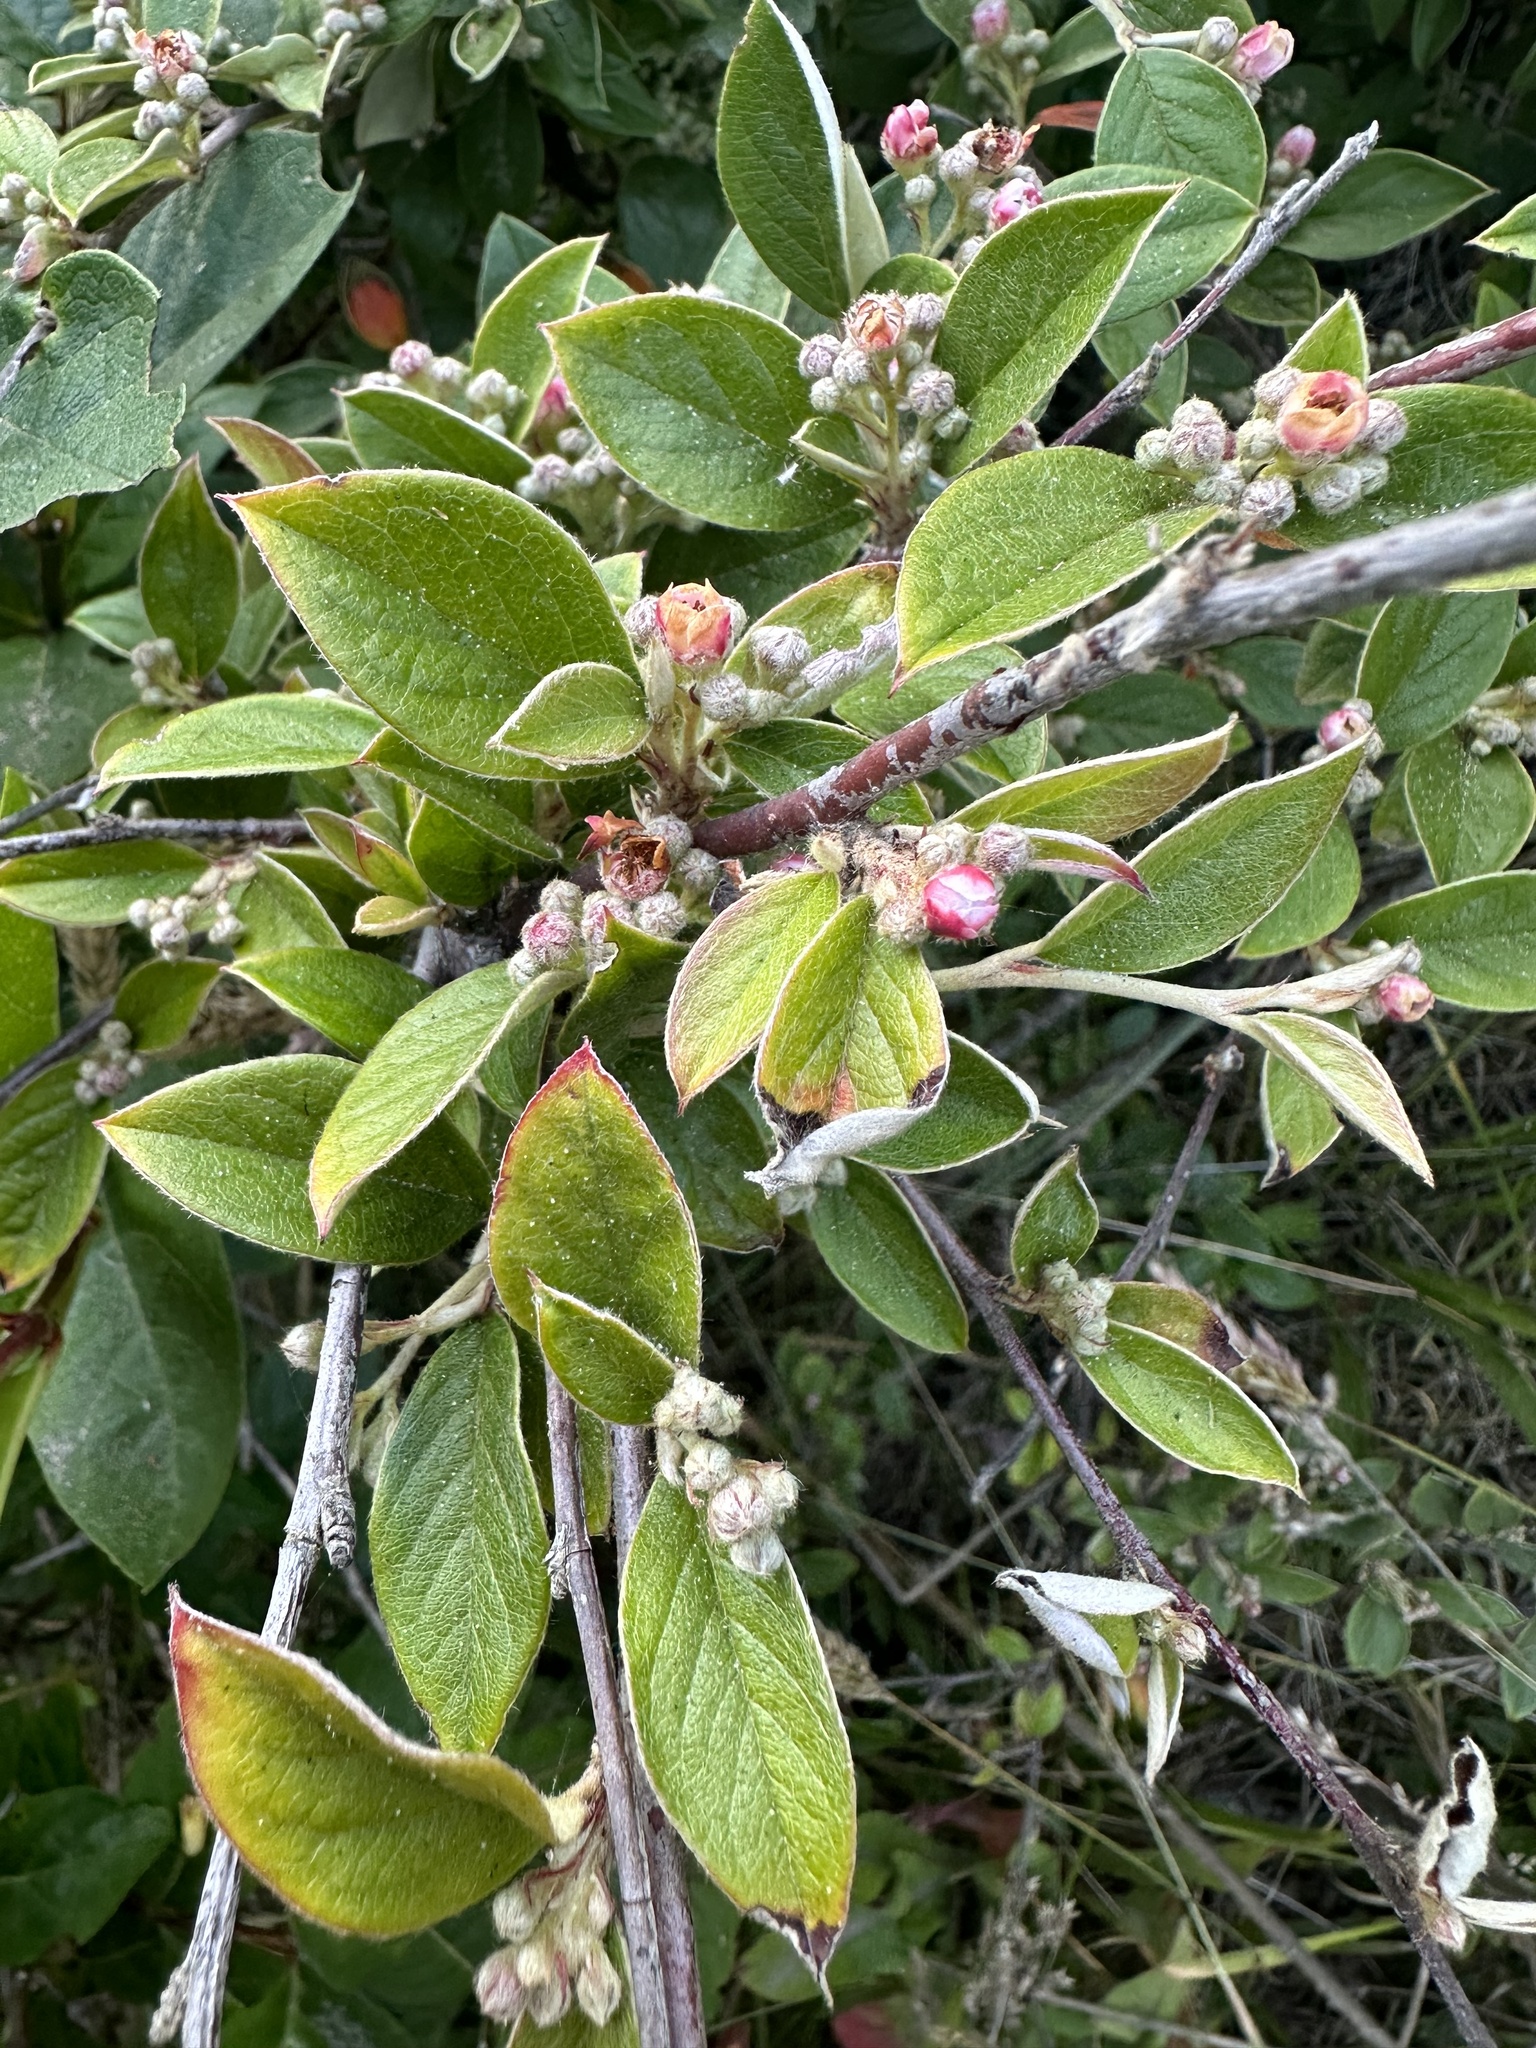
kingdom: Plantae
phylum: Tracheophyta
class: Magnoliopsida
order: Rosales
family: Rosaceae
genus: Cotoneaster
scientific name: Cotoneaster franchetii
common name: Franchet's cotoneaster
